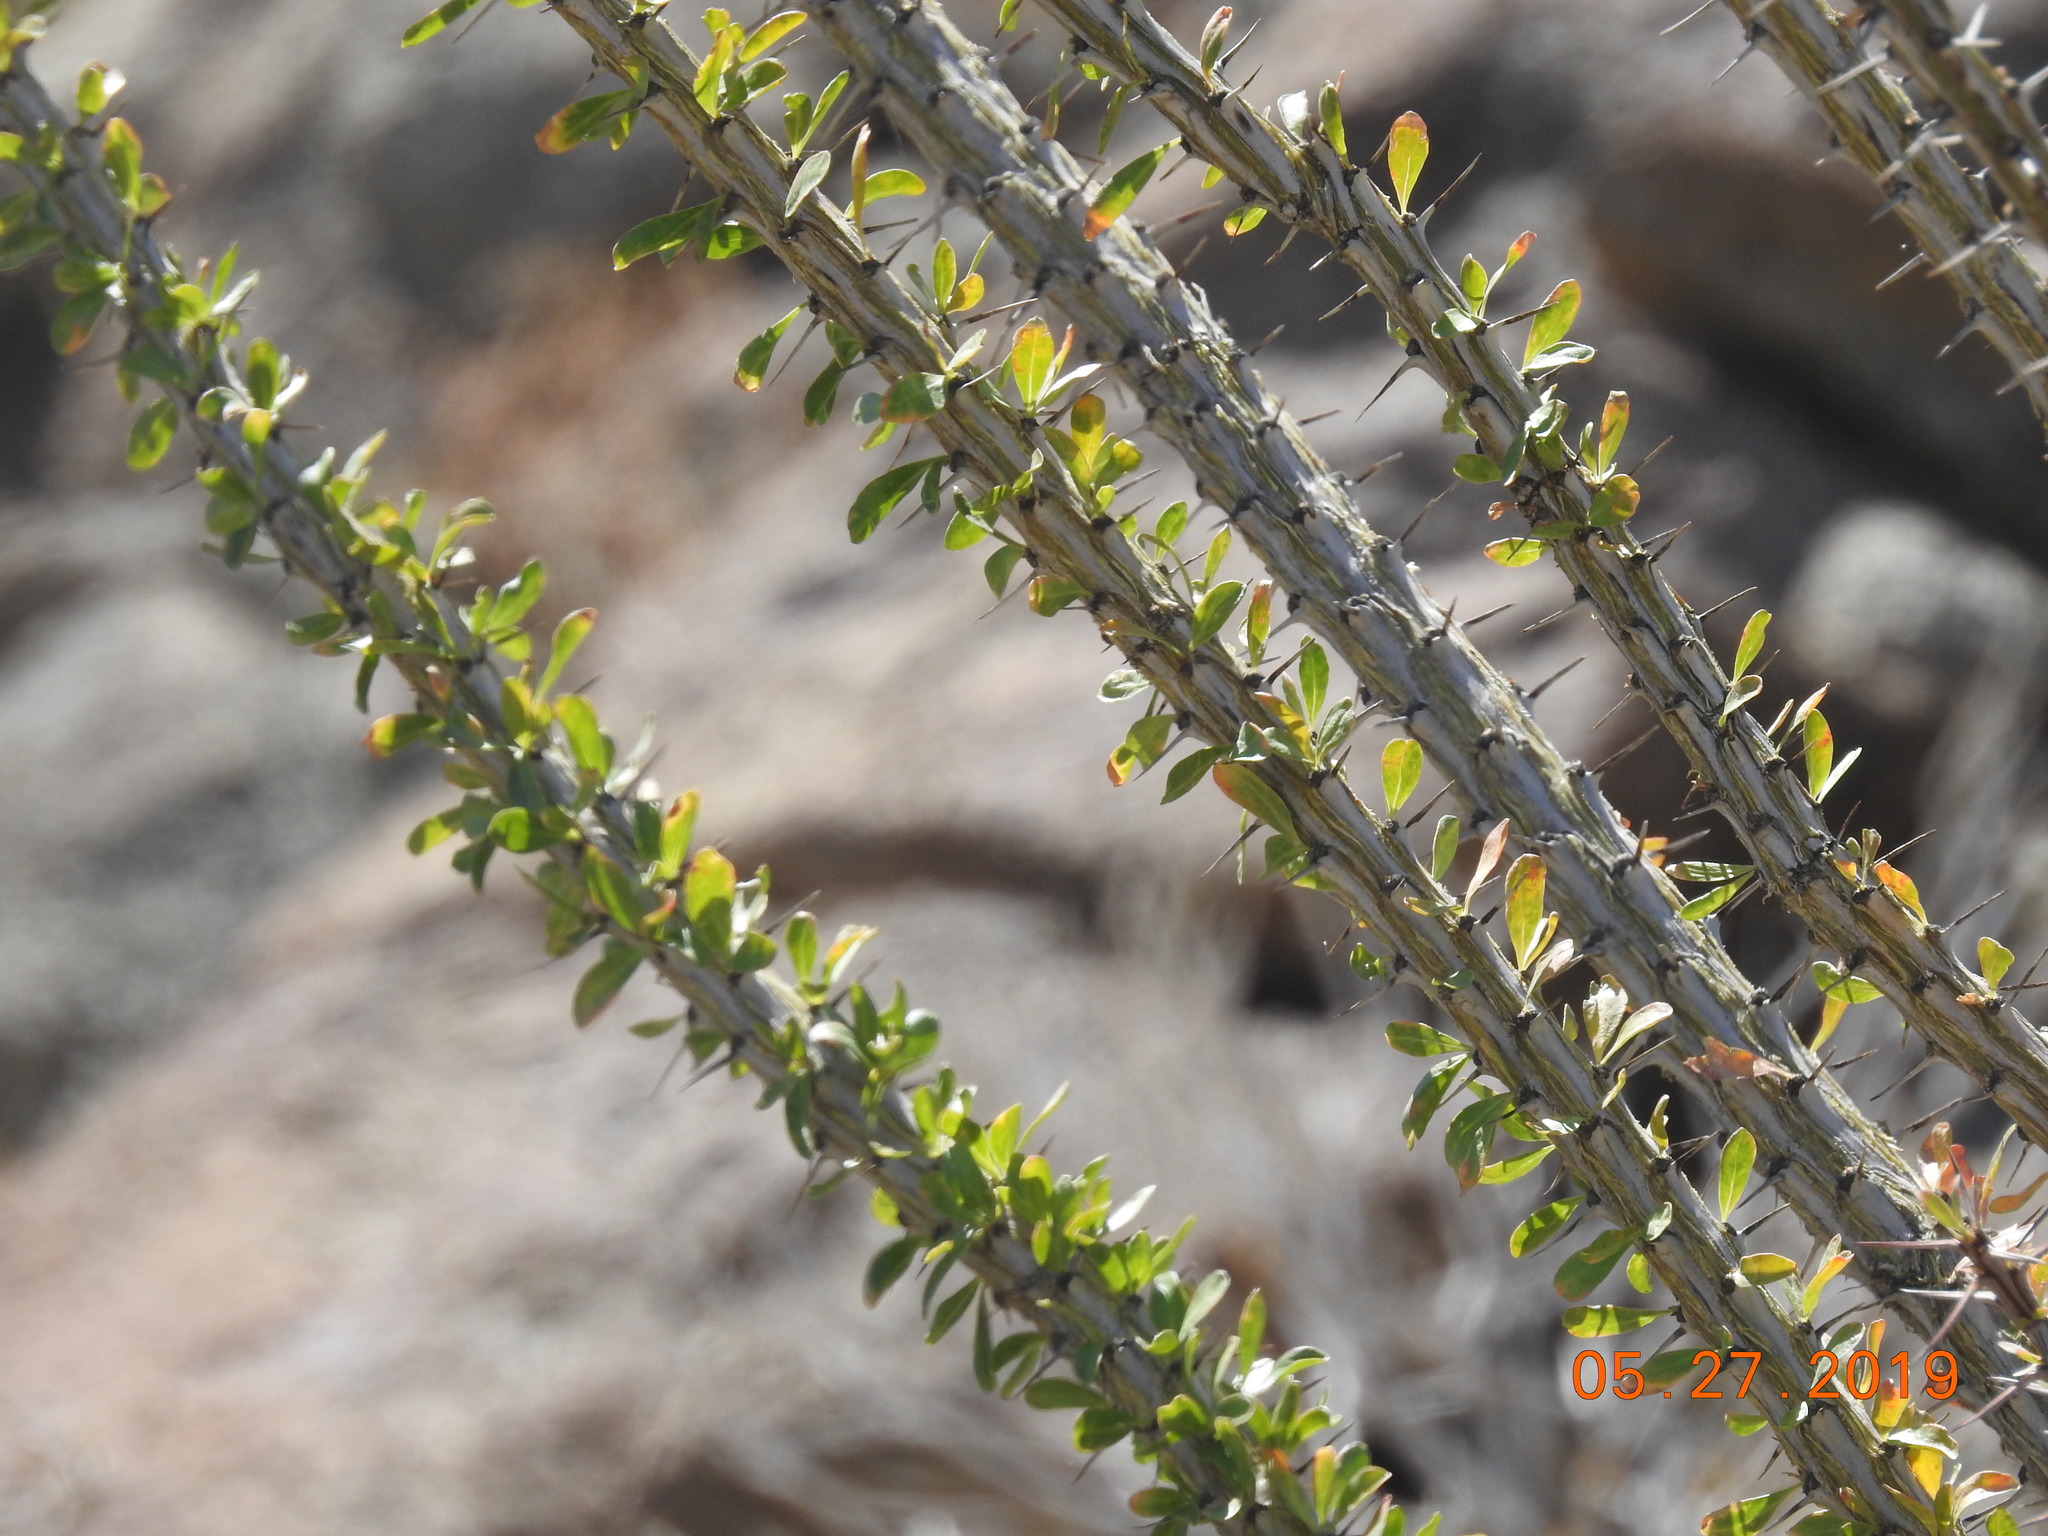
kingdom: Plantae
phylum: Tracheophyta
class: Magnoliopsida
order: Ericales
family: Fouquieriaceae
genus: Fouquieria
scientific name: Fouquieria splendens
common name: Vine-cactus
